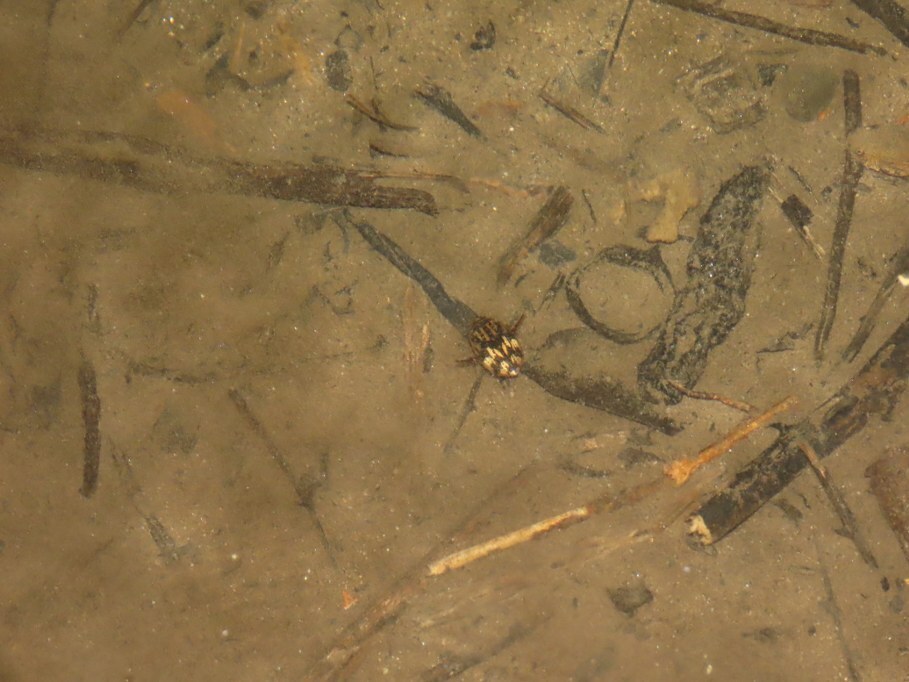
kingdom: Animalia
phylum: Arthropoda
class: Insecta
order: Coleoptera
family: Dytiscidae
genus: Sandracottus
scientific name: Sandracottus festivus
